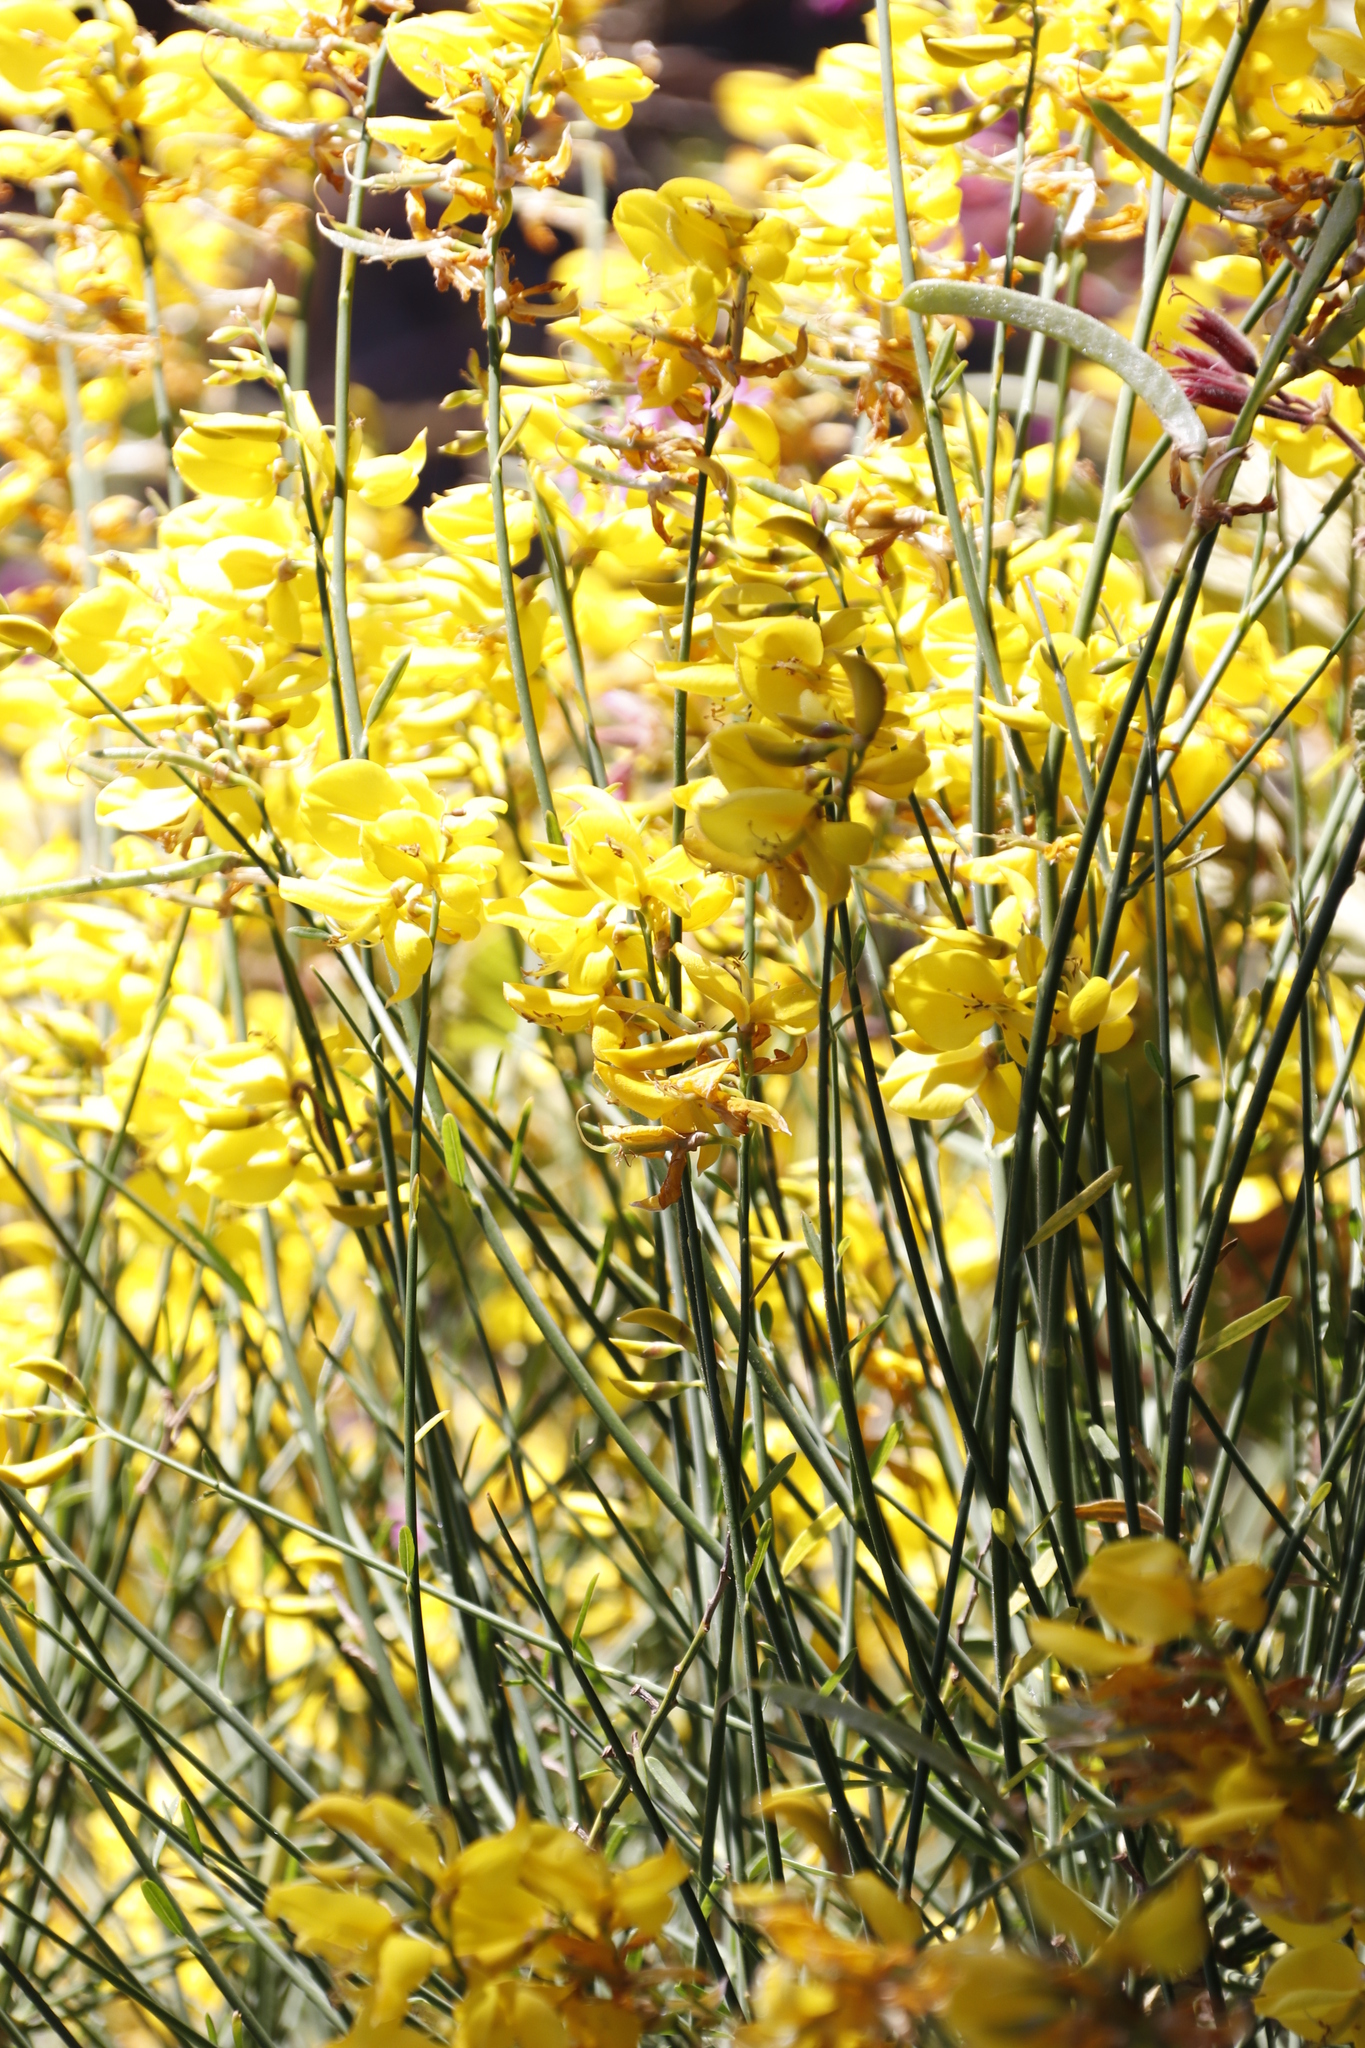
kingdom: Plantae
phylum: Tracheophyta
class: Magnoliopsida
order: Fabales
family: Fabaceae
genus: Spartium
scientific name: Spartium junceum
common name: Spanish broom
